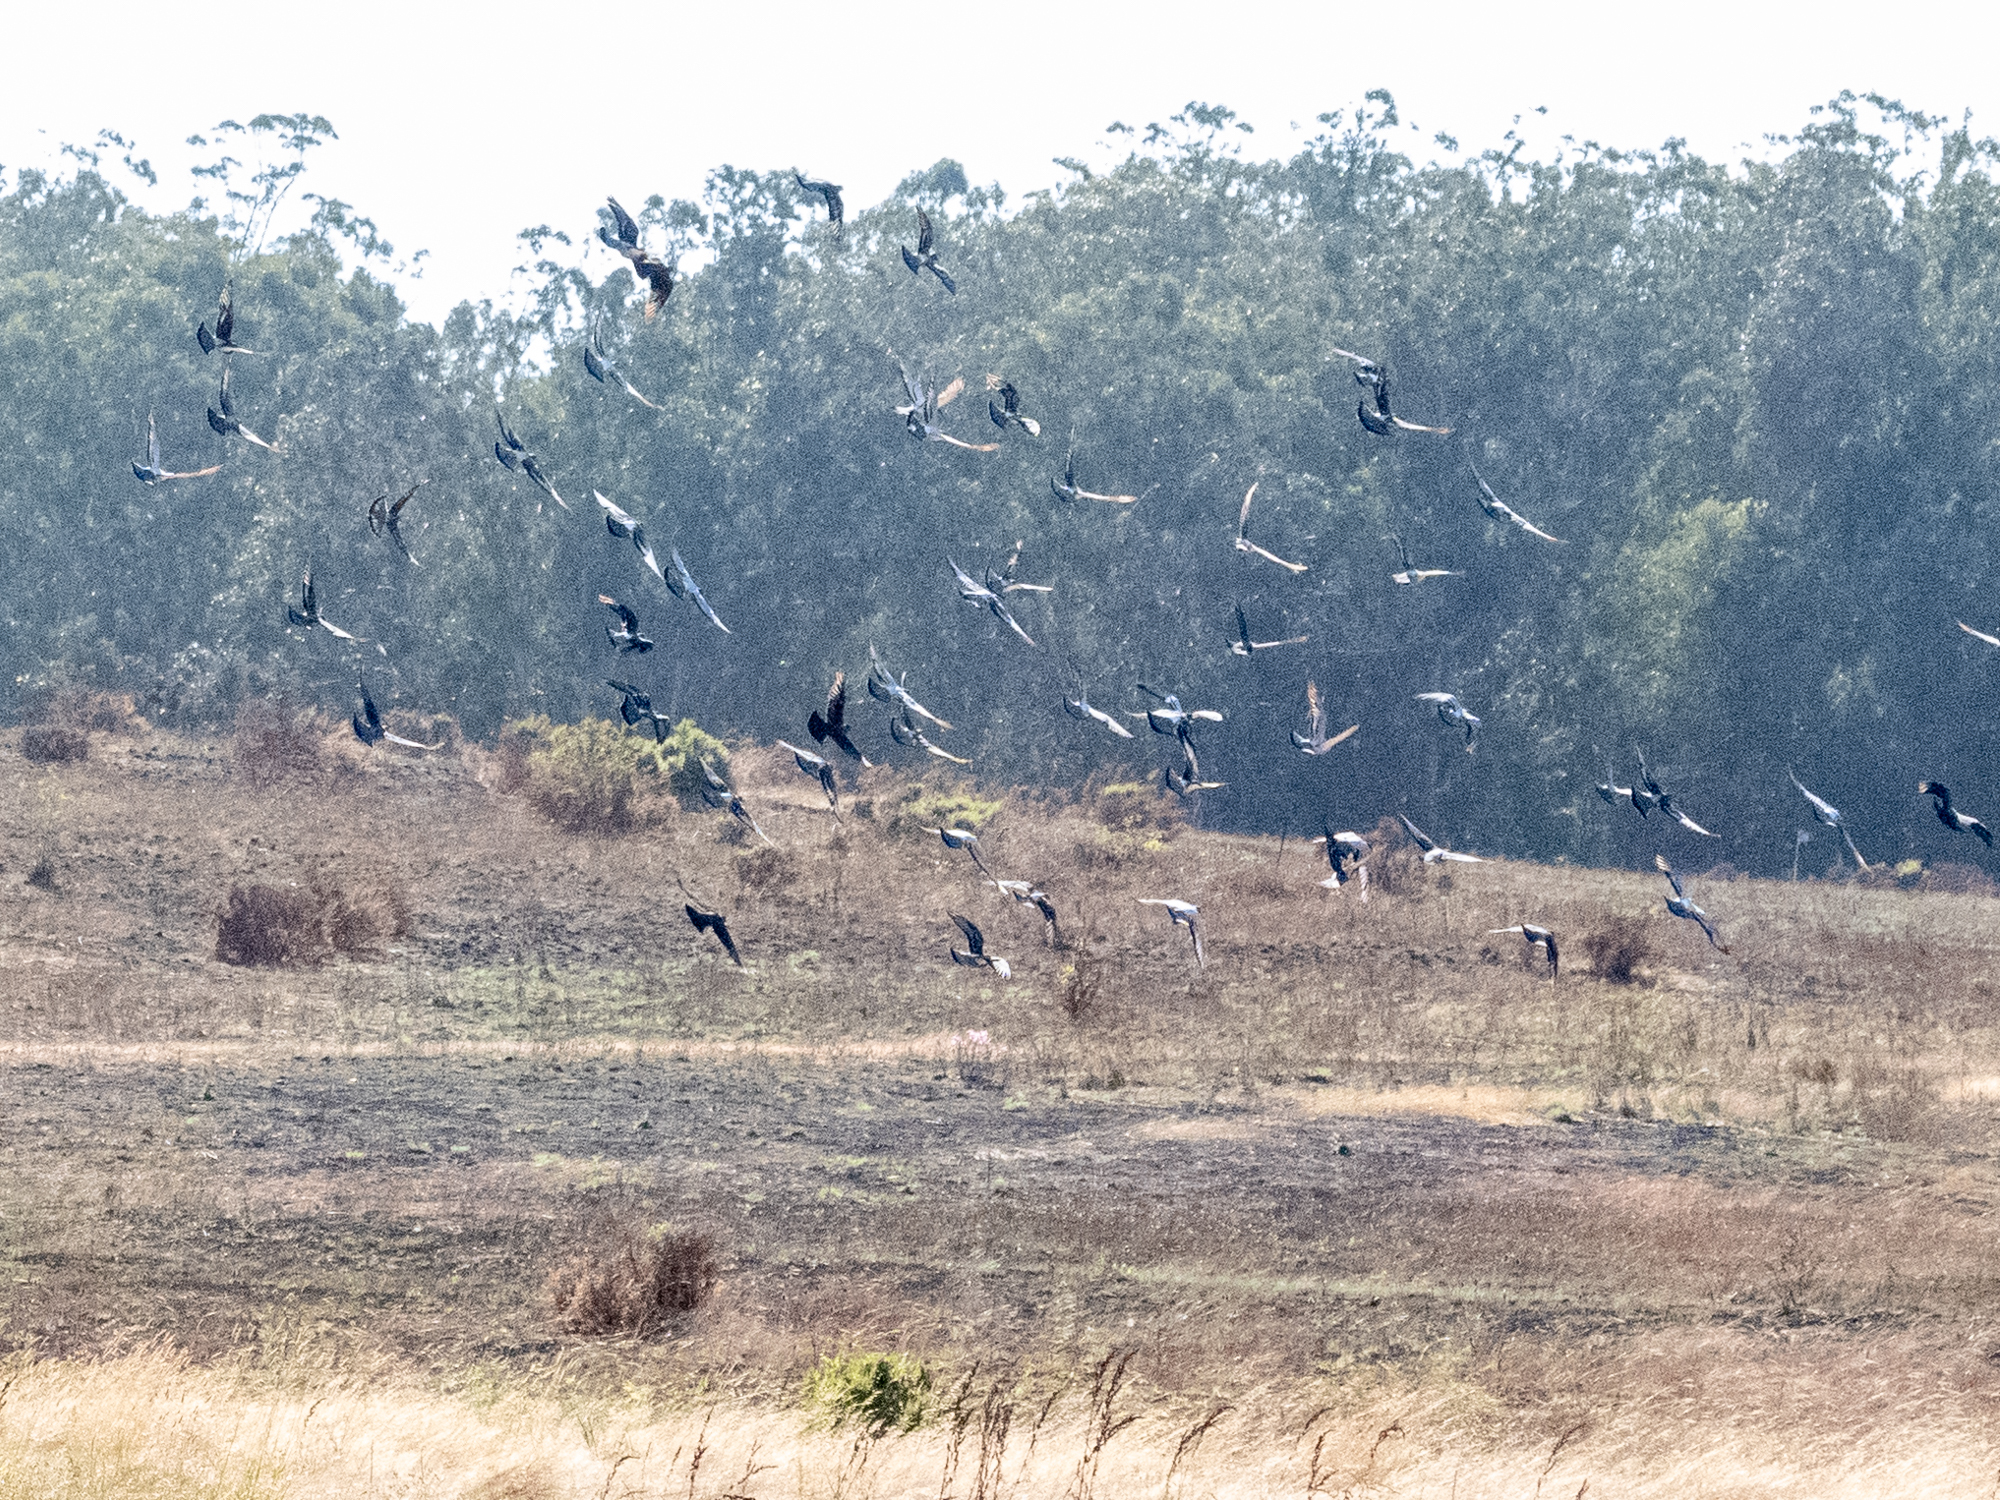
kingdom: Animalia
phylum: Chordata
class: Aves
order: Columbiformes
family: Columbidae
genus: Columba
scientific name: Columba livia
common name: Rock pigeon
